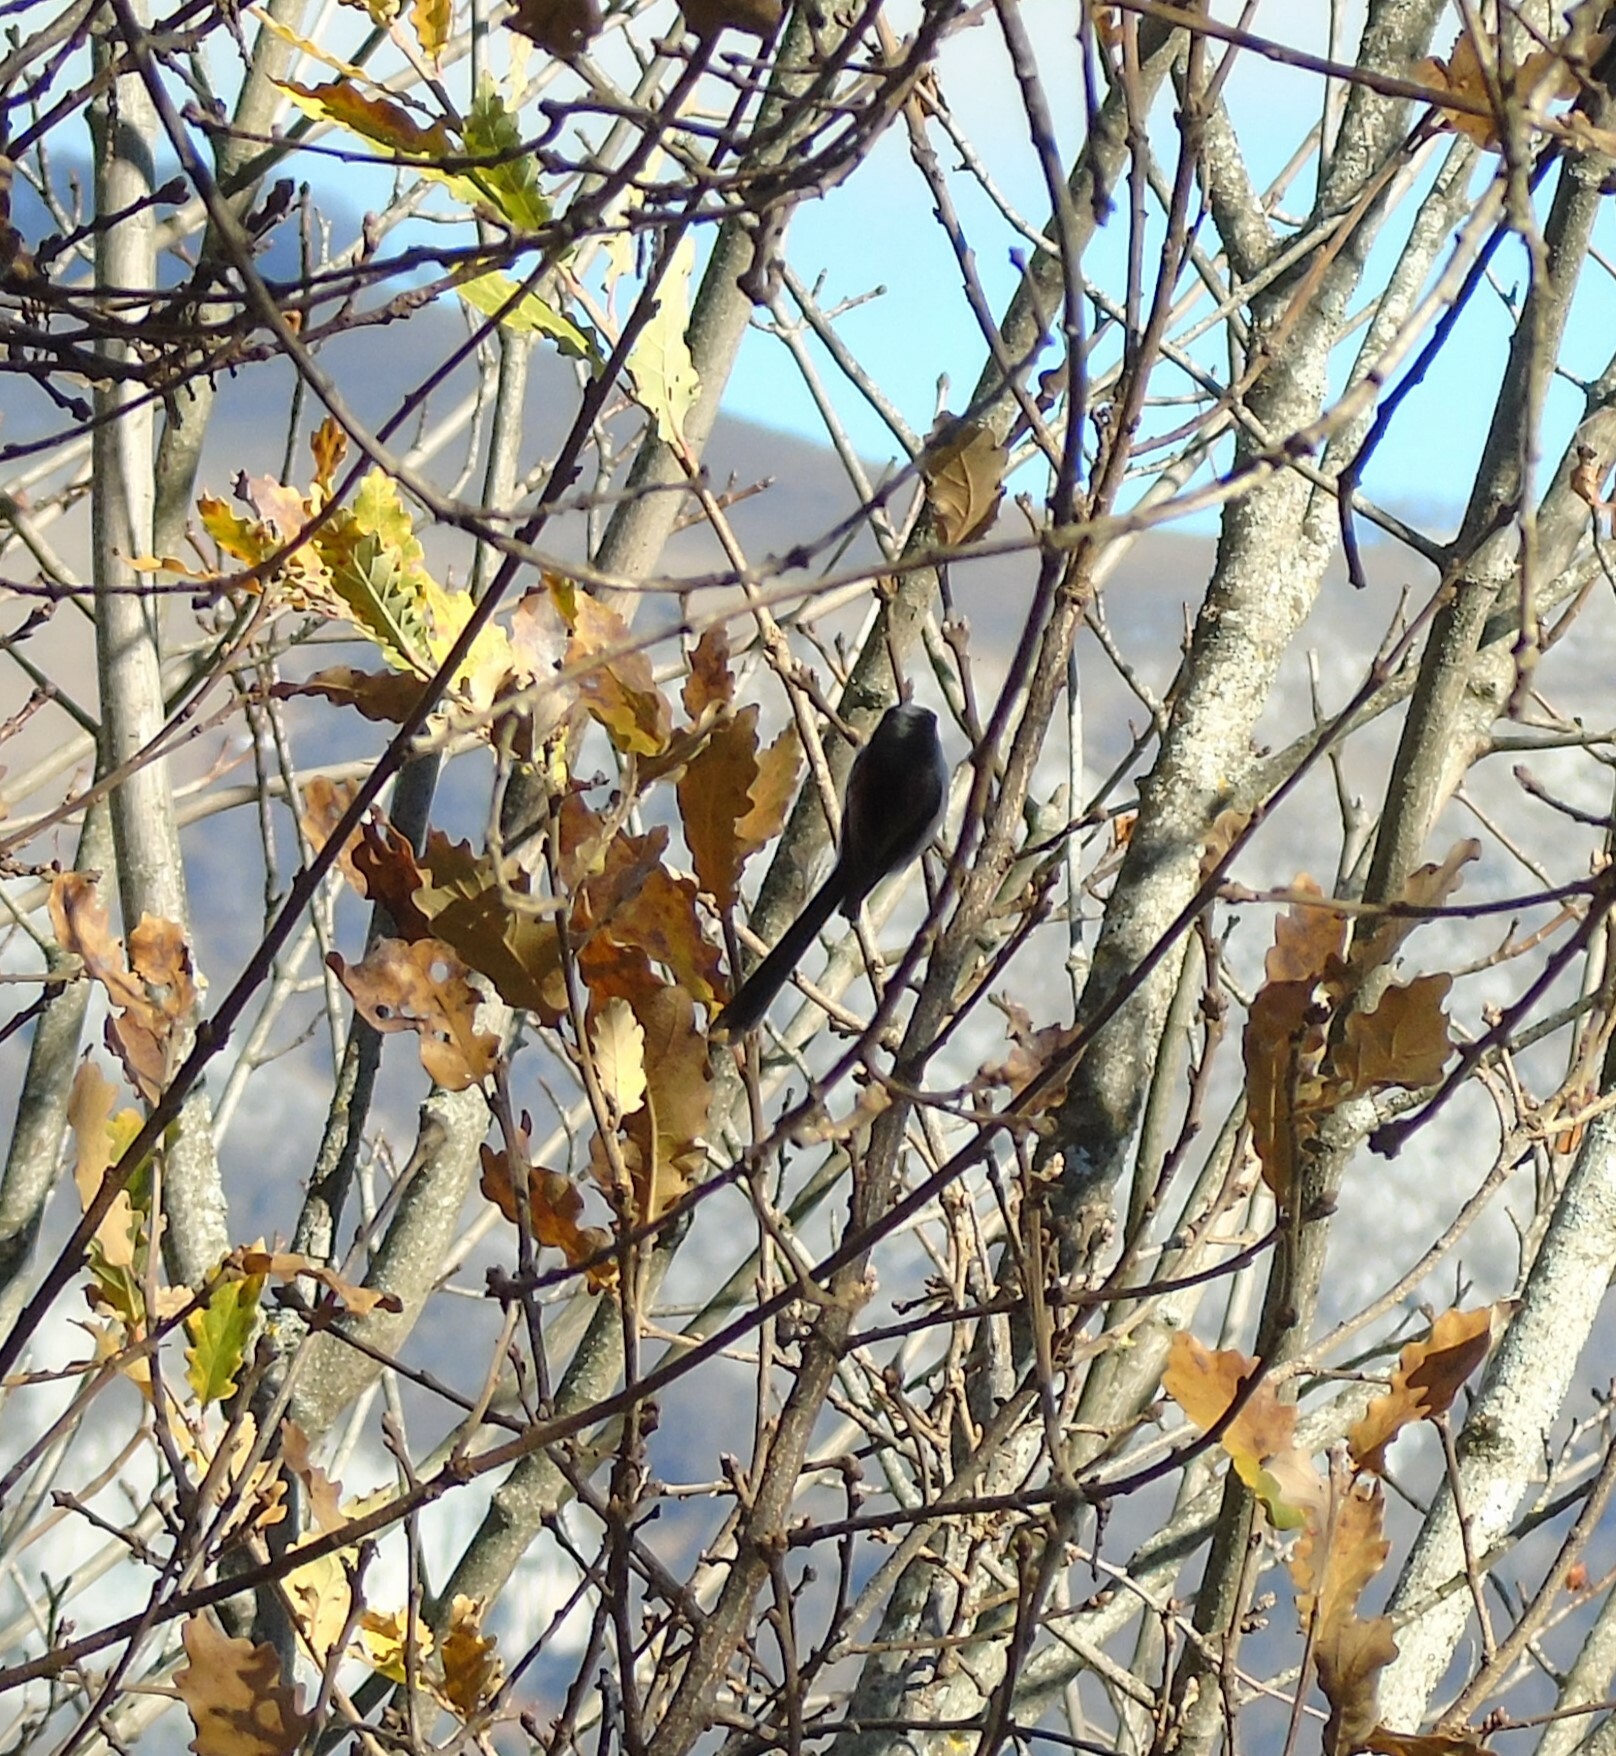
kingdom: Animalia
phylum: Chordata
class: Aves
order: Passeriformes
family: Aegithalidae
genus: Aegithalos
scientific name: Aegithalos caudatus
